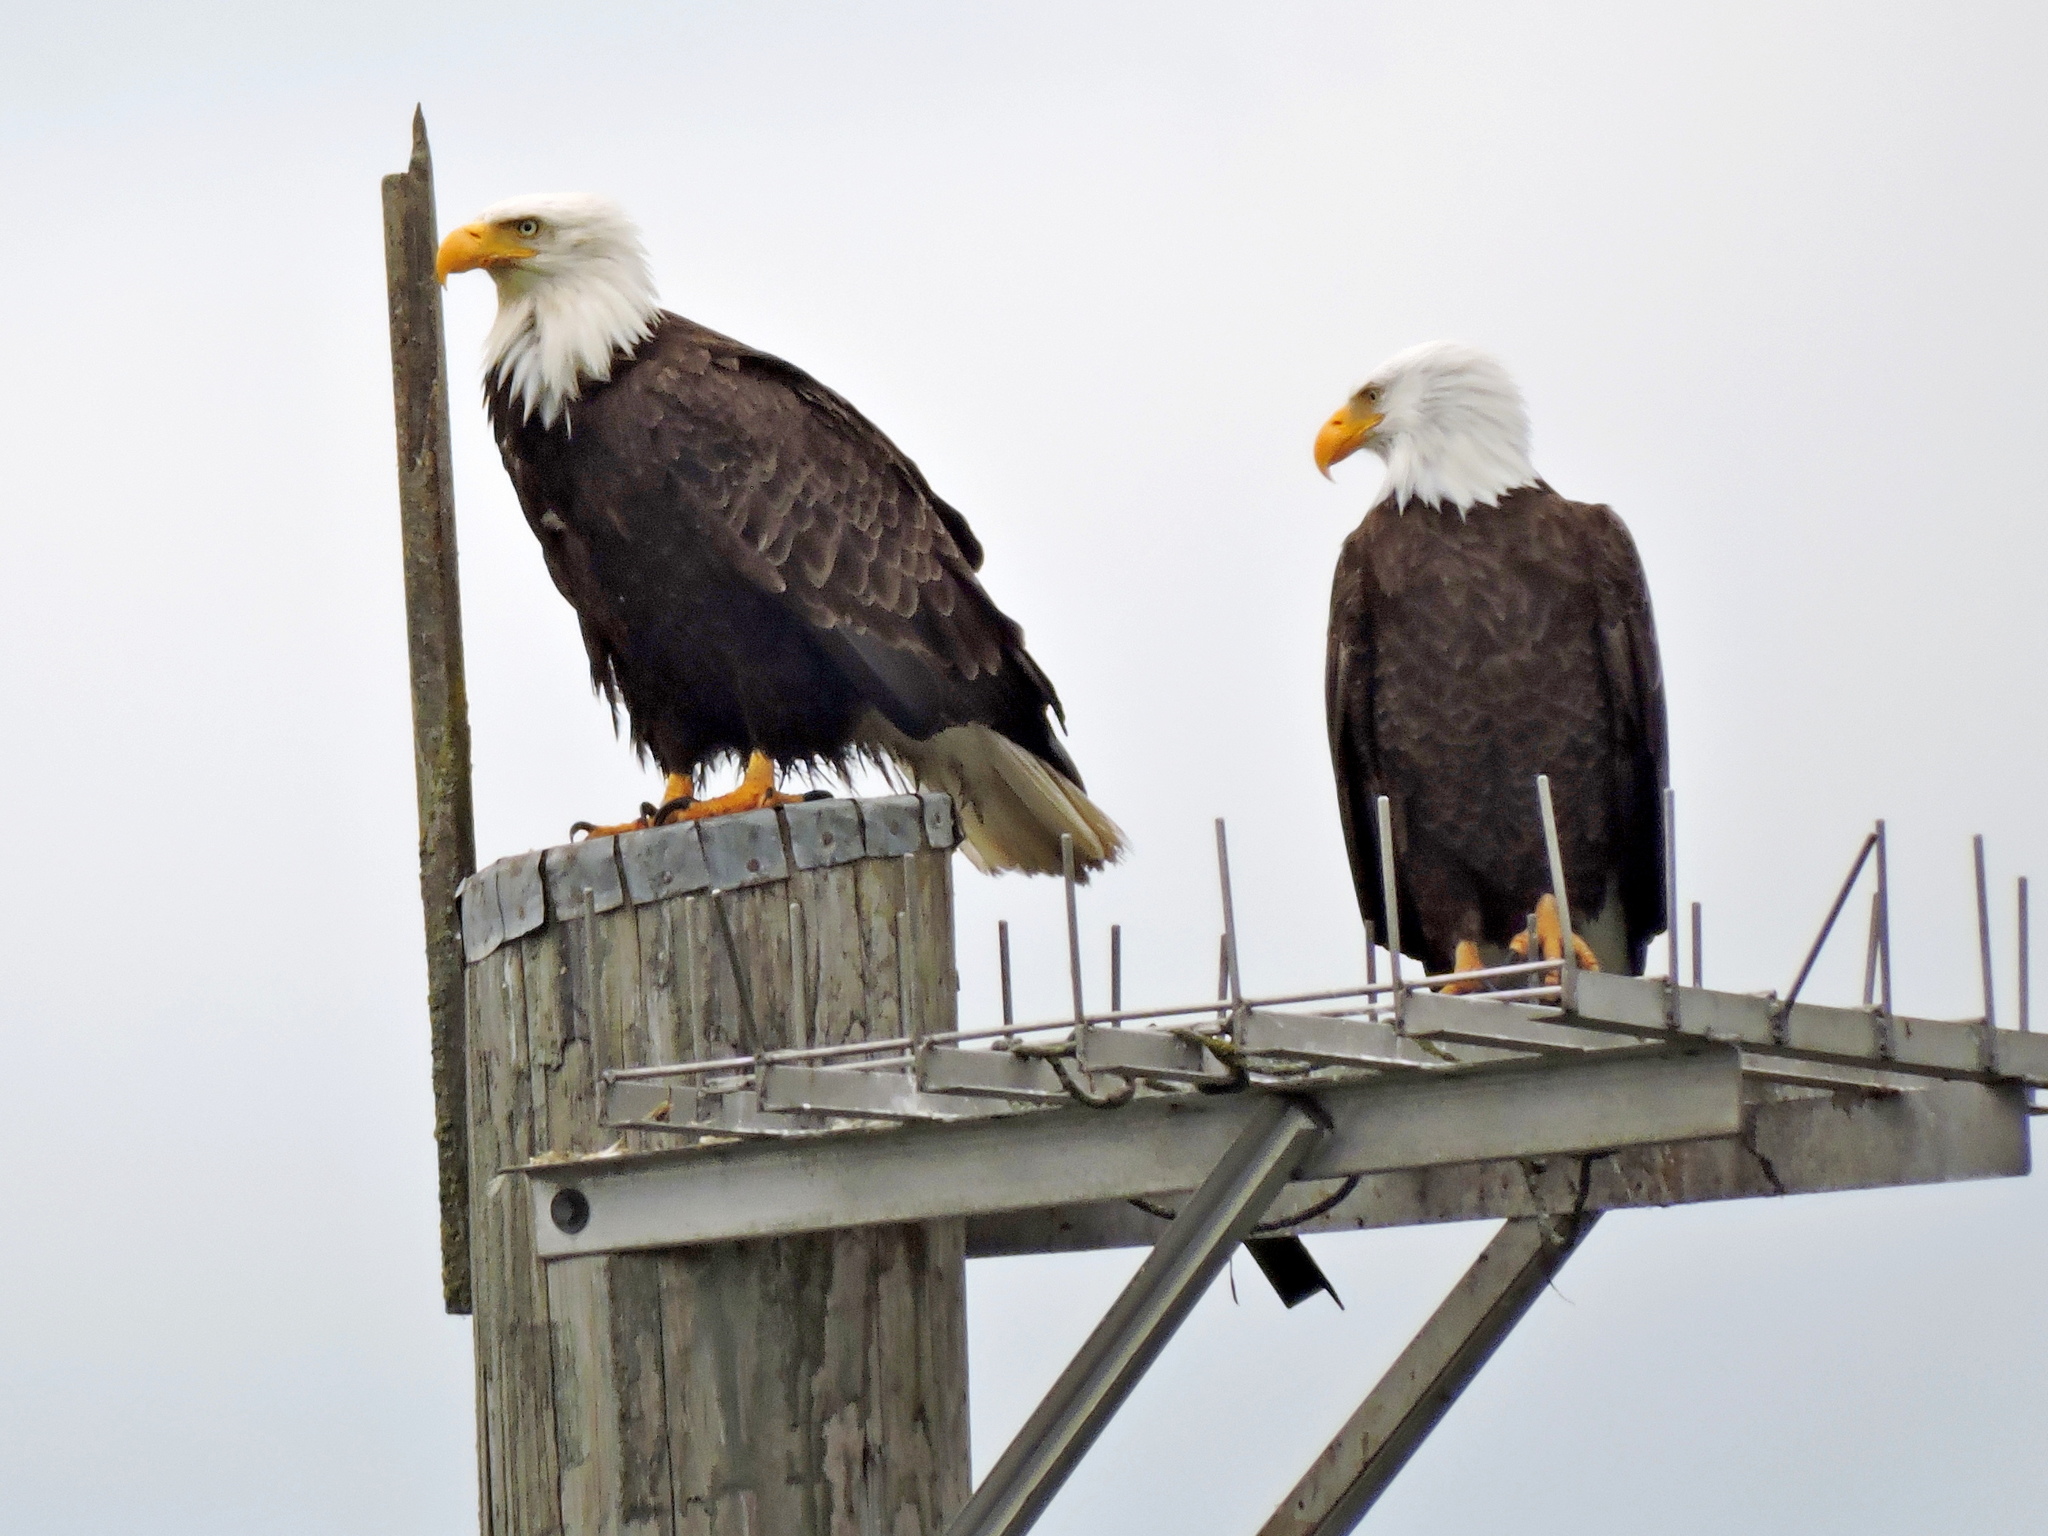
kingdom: Animalia
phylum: Chordata
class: Aves
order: Accipitriformes
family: Accipitridae
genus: Haliaeetus
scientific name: Haliaeetus leucocephalus
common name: Bald eagle
